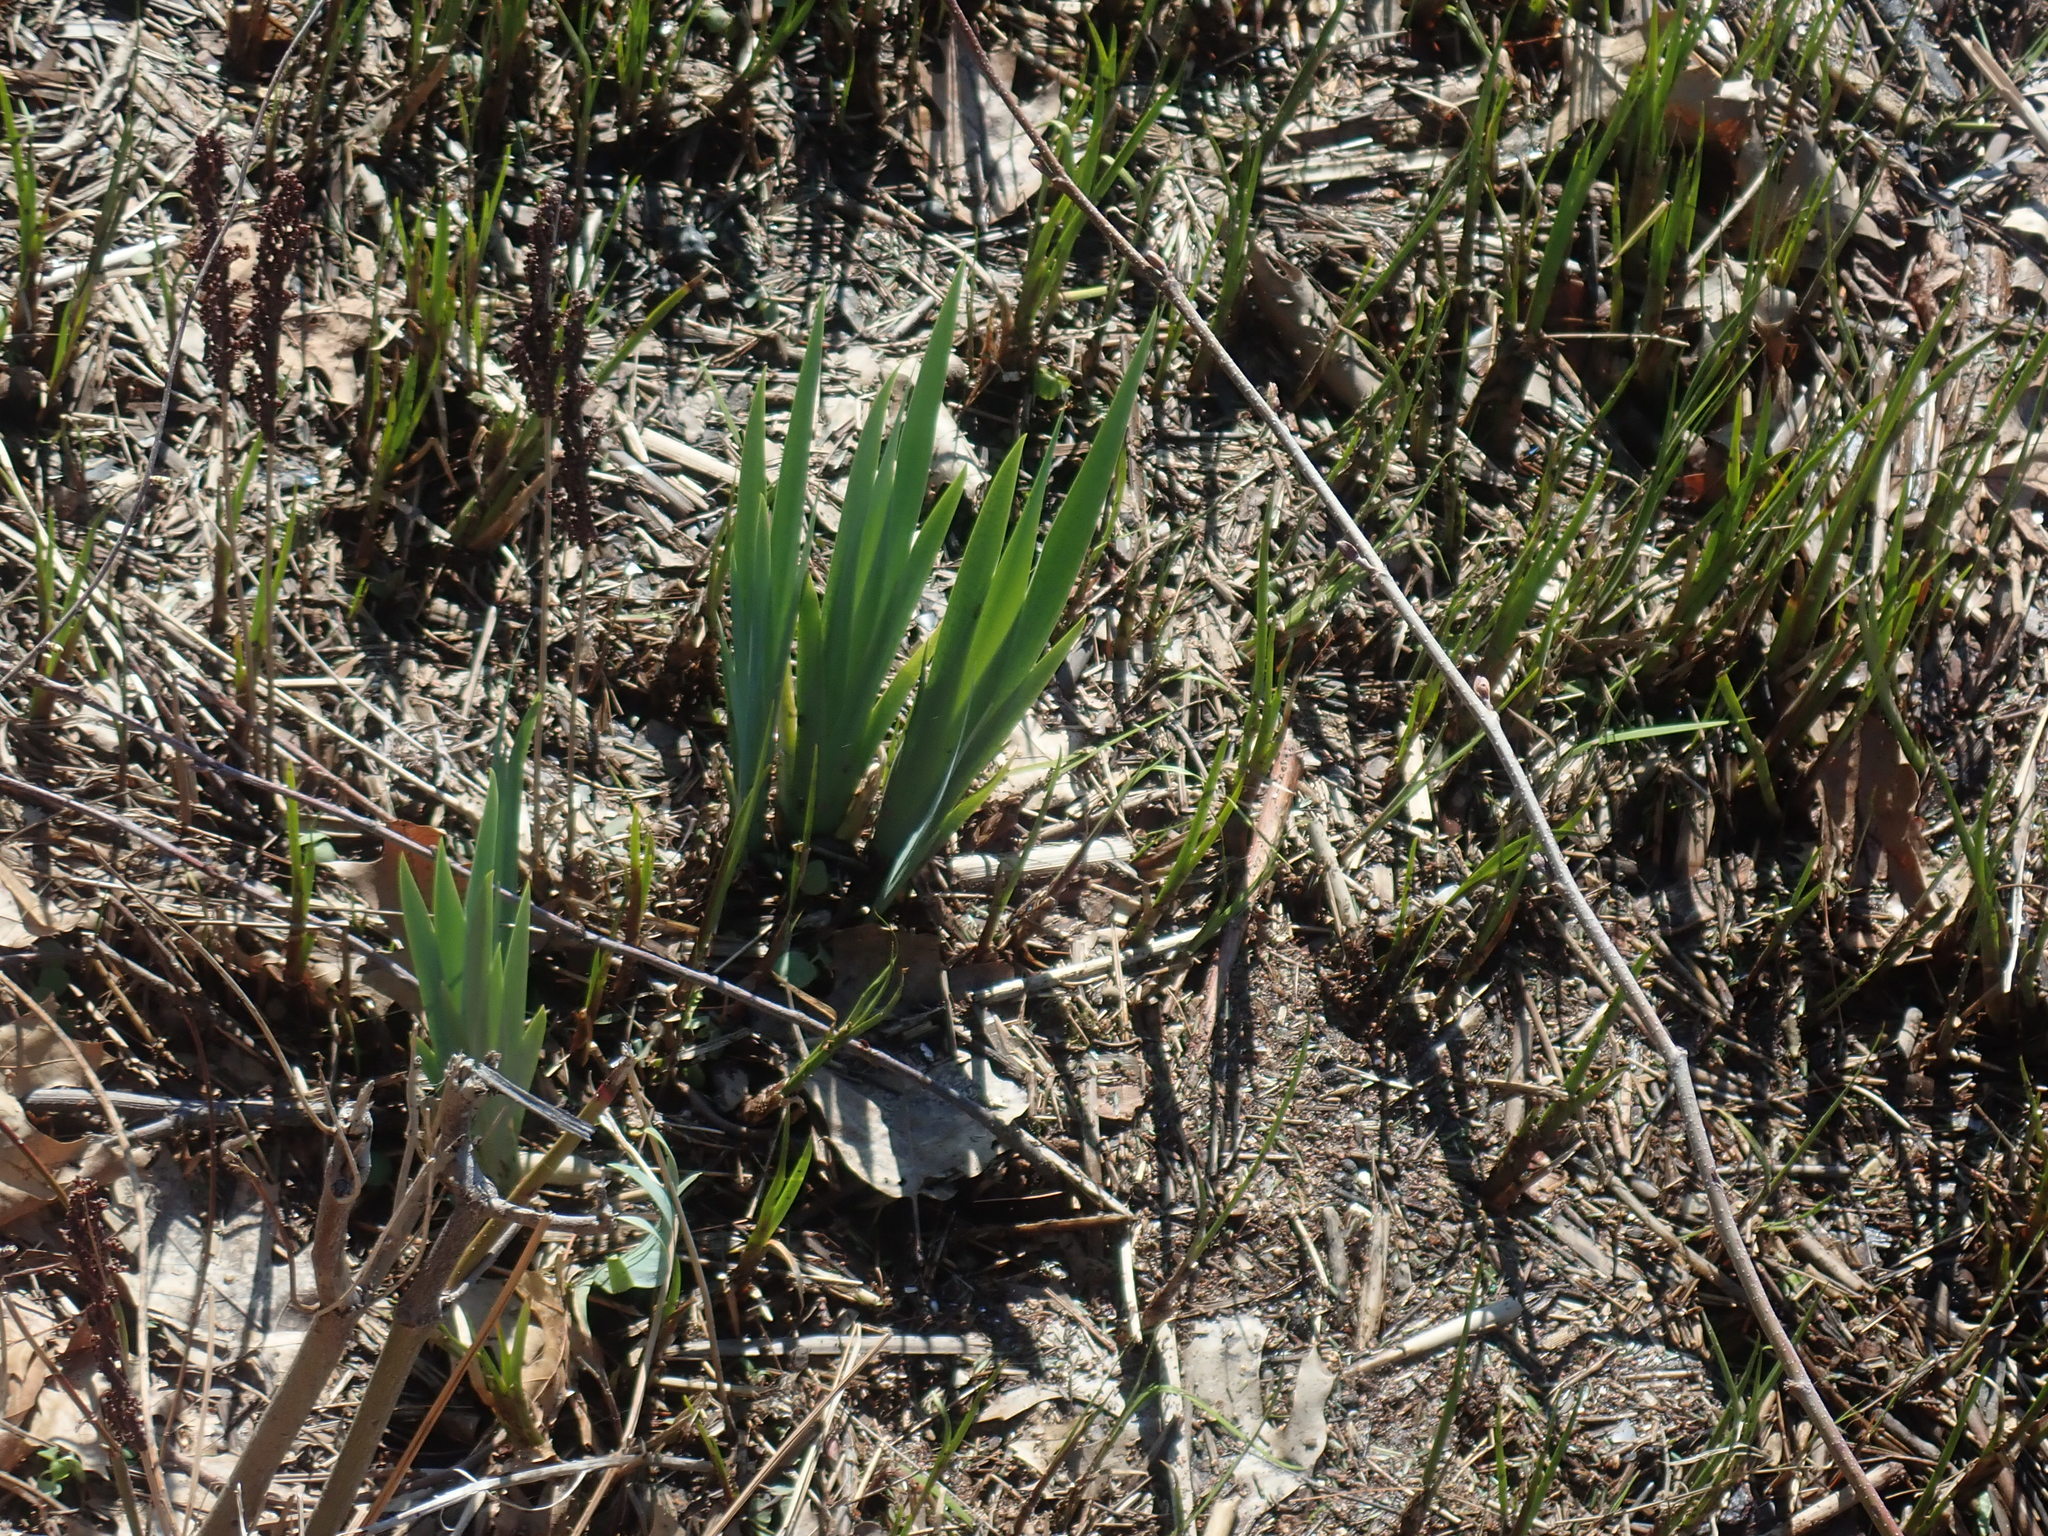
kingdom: Plantae
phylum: Tracheophyta
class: Liliopsida
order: Asparagales
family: Iridaceae
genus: Iris
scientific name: Iris
